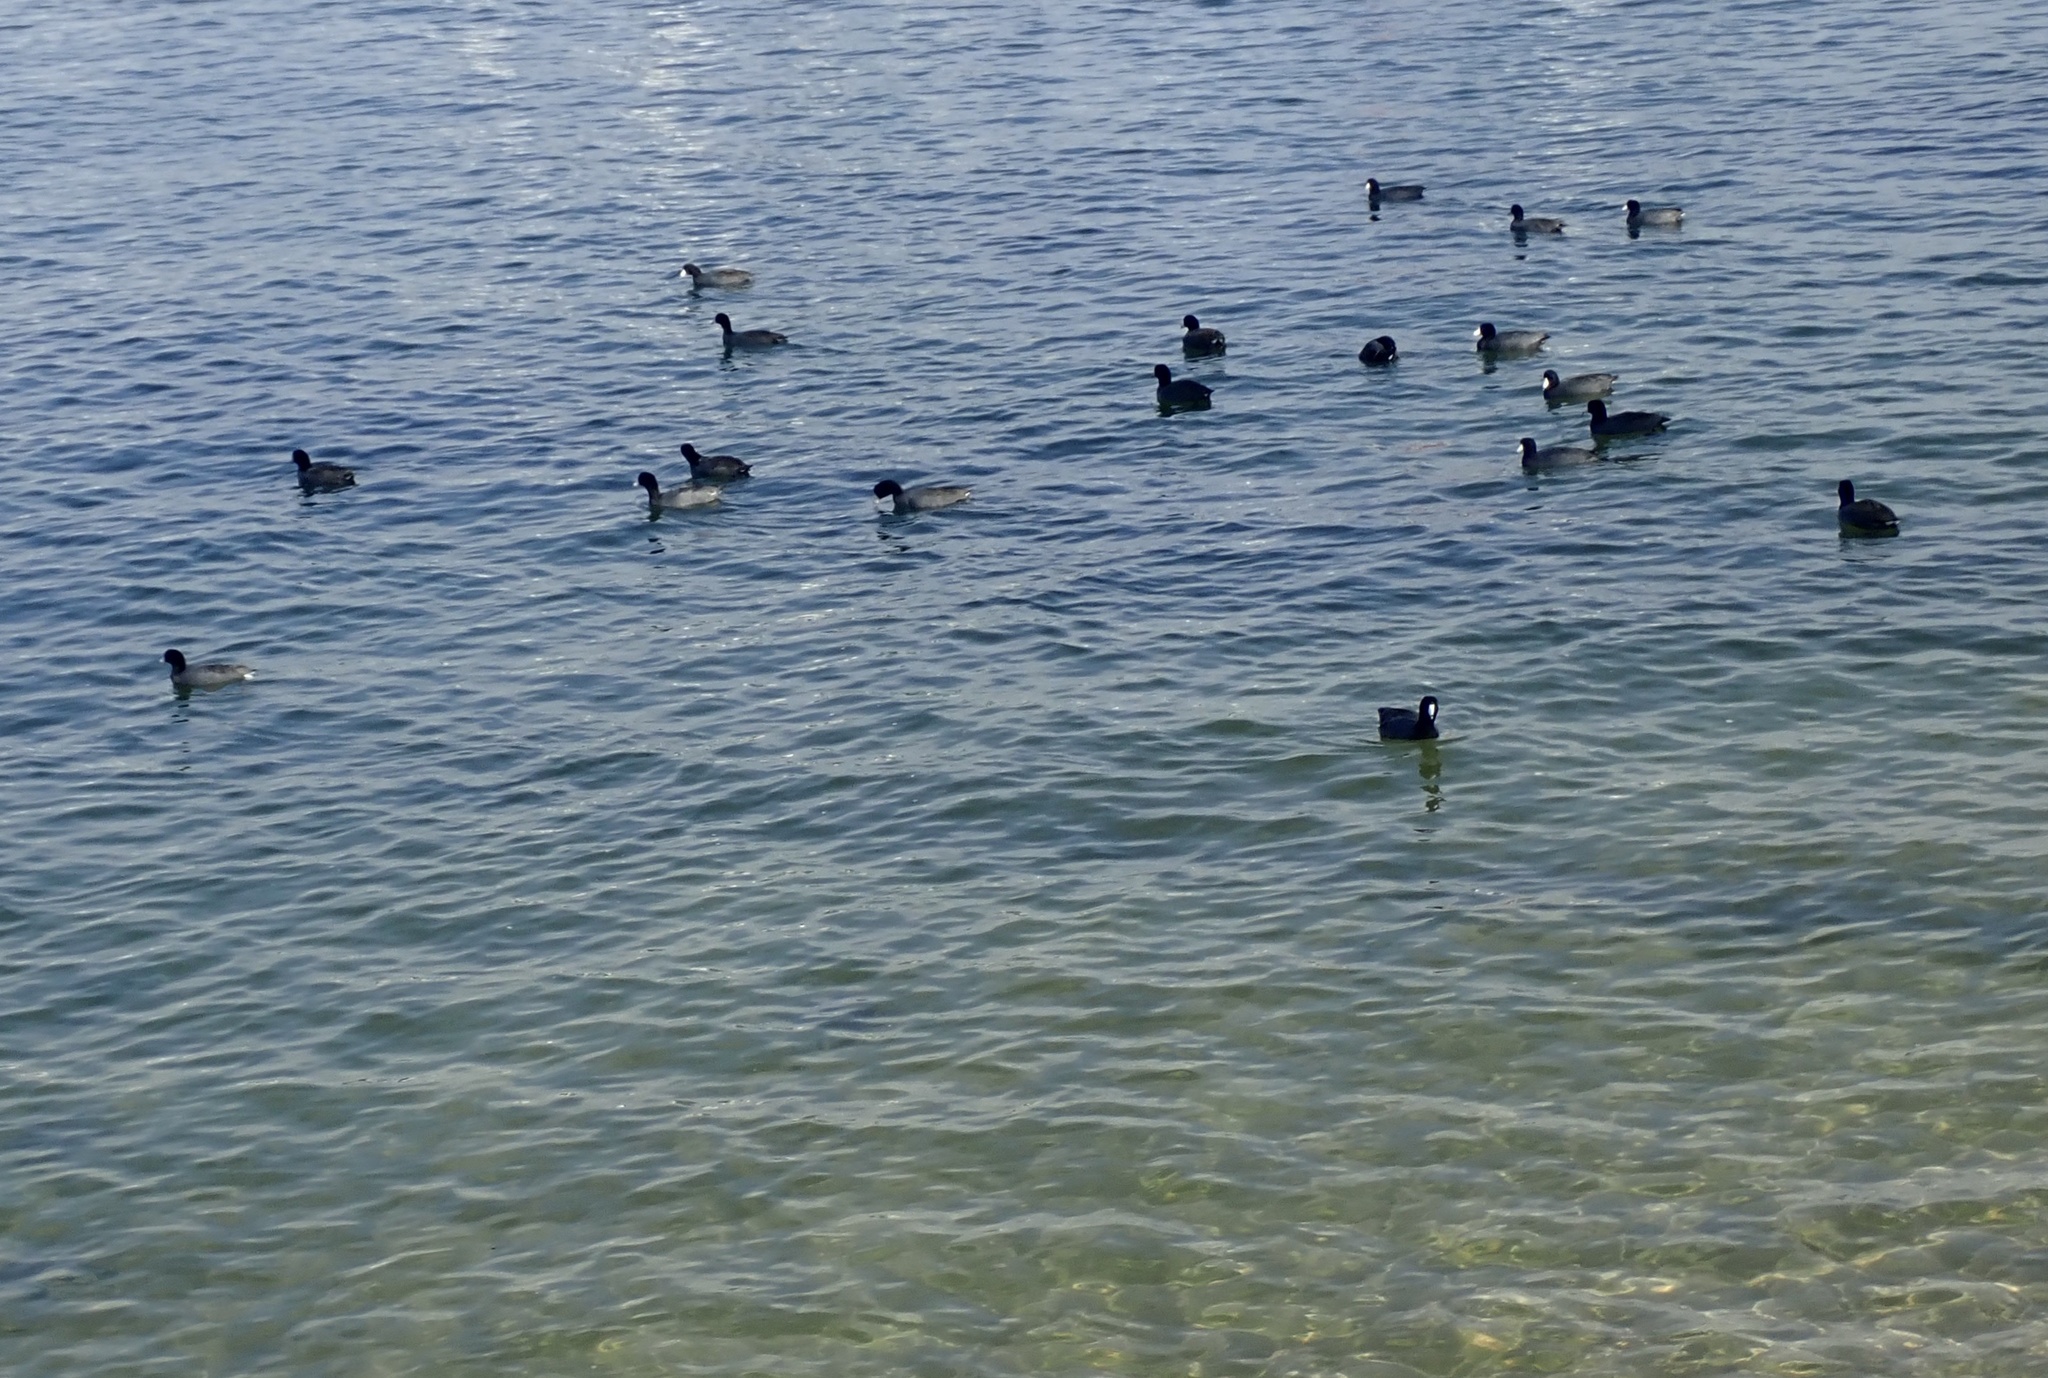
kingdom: Animalia
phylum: Chordata
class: Aves
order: Gruiformes
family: Rallidae
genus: Fulica
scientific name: Fulica americana
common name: American coot
